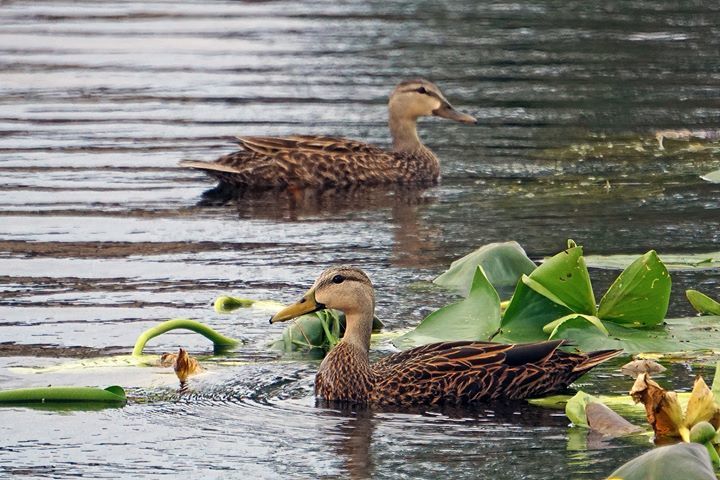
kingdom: Animalia
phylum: Chordata
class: Aves
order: Anseriformes
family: Anatidae
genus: Anas
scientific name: Anas fulvigula
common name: Mottled duck
